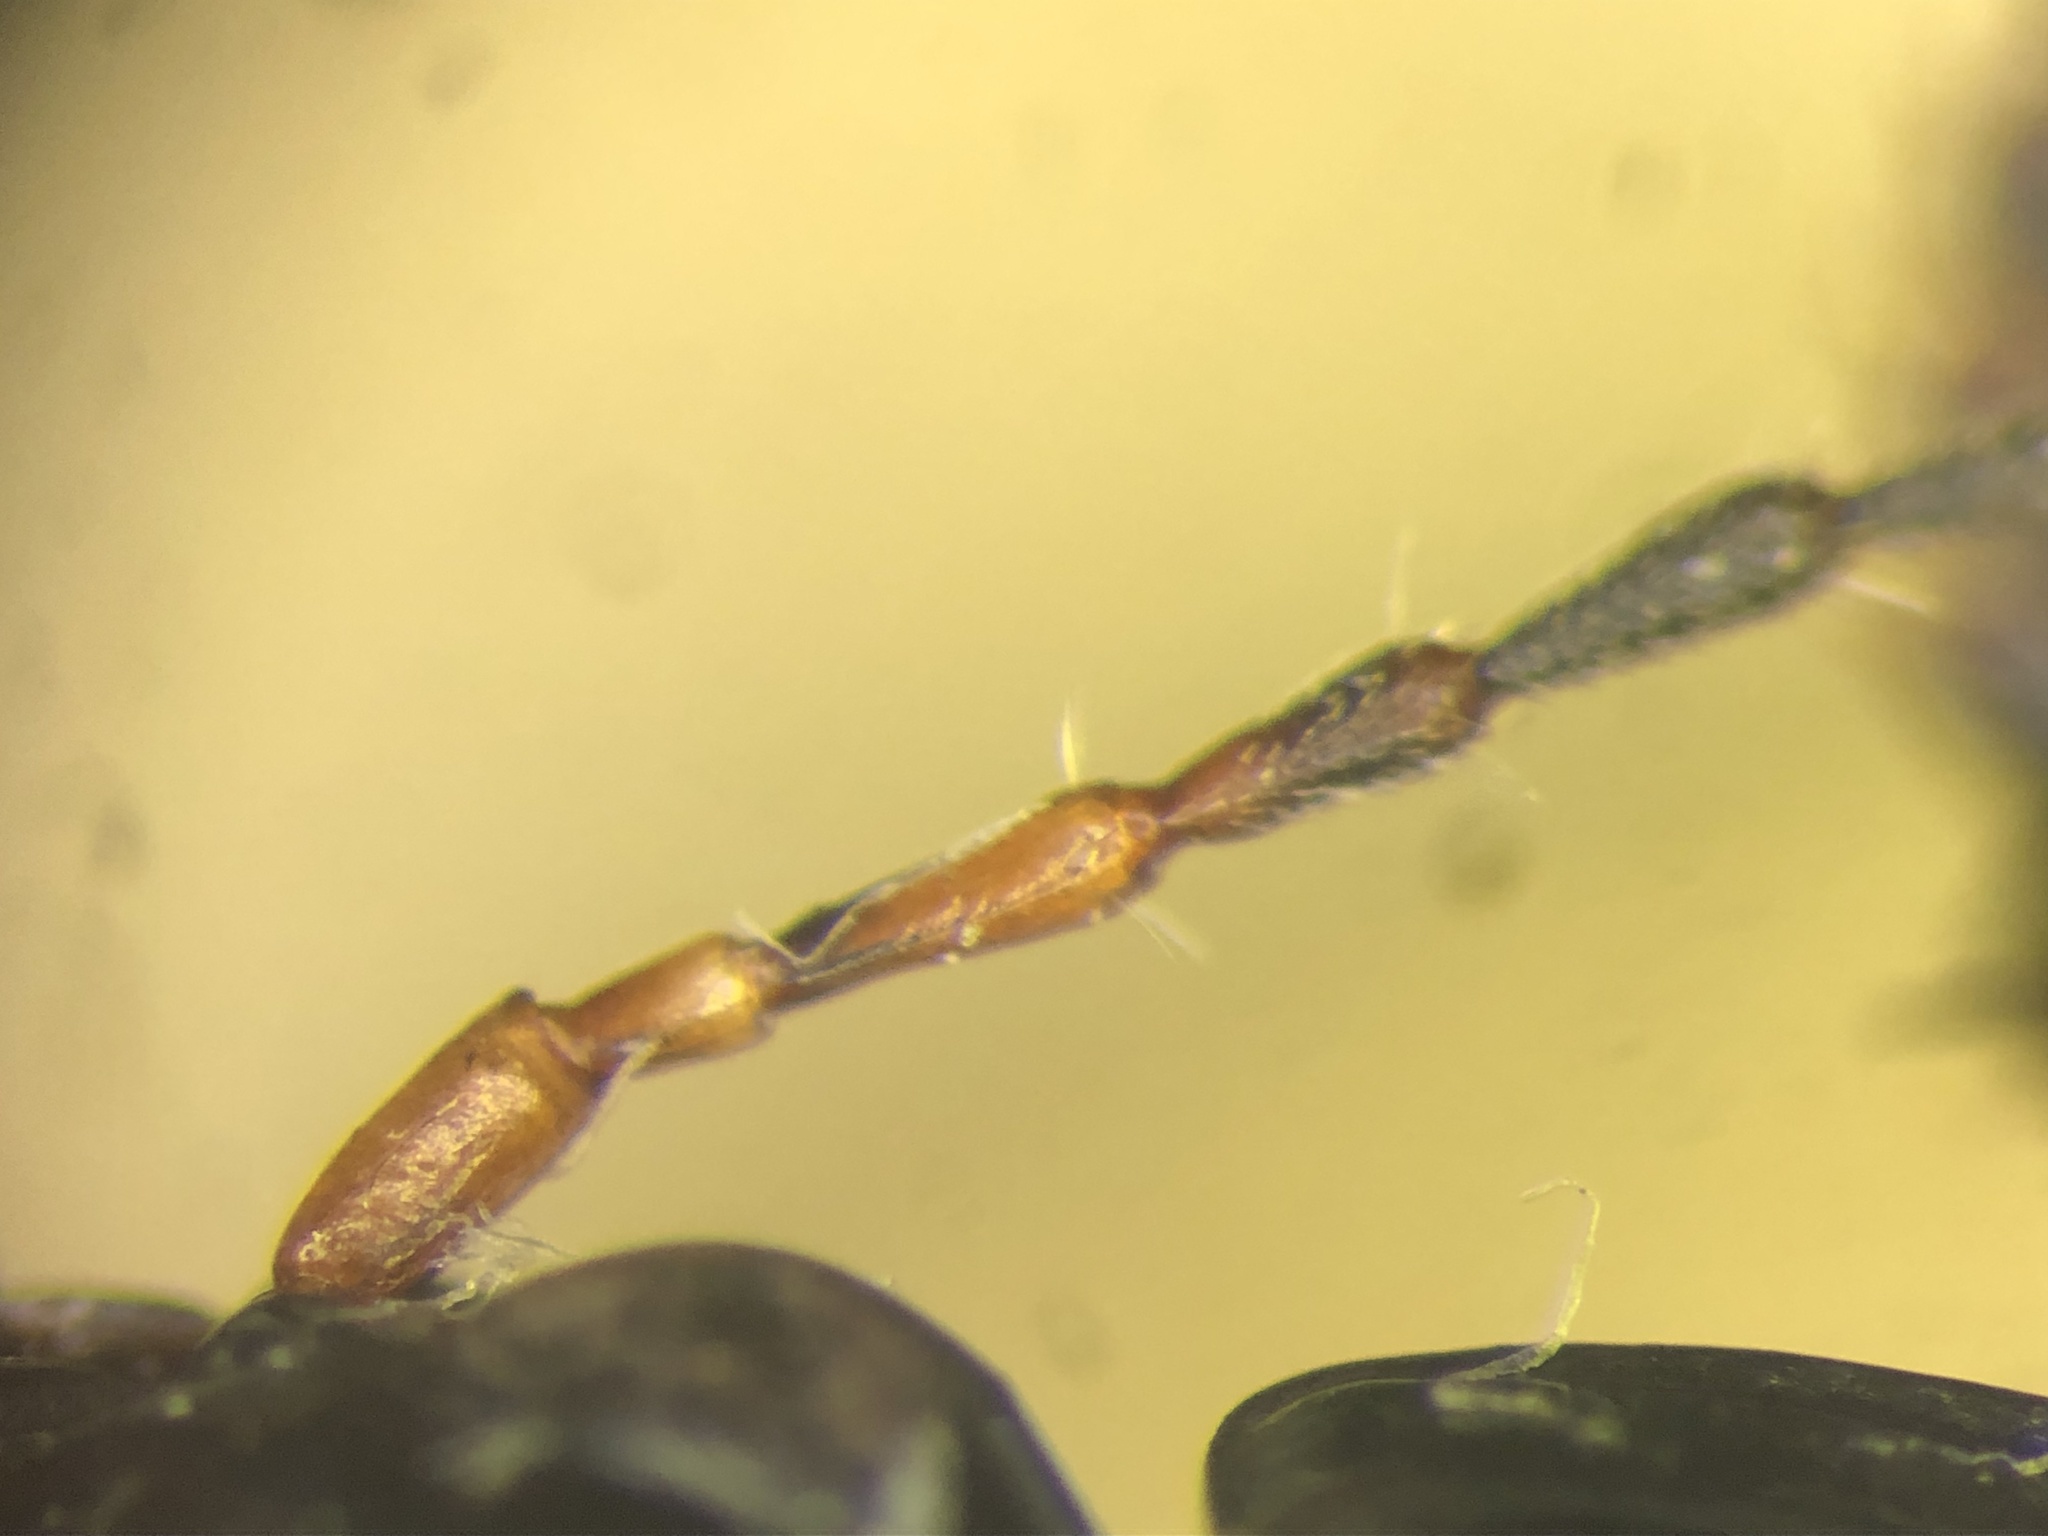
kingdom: Animalia
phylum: Arthropoda
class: Insecta
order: Coleoptera
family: Carabidae
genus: Poecilus
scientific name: Poecilus lucublandus
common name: Woodland ground beetle
